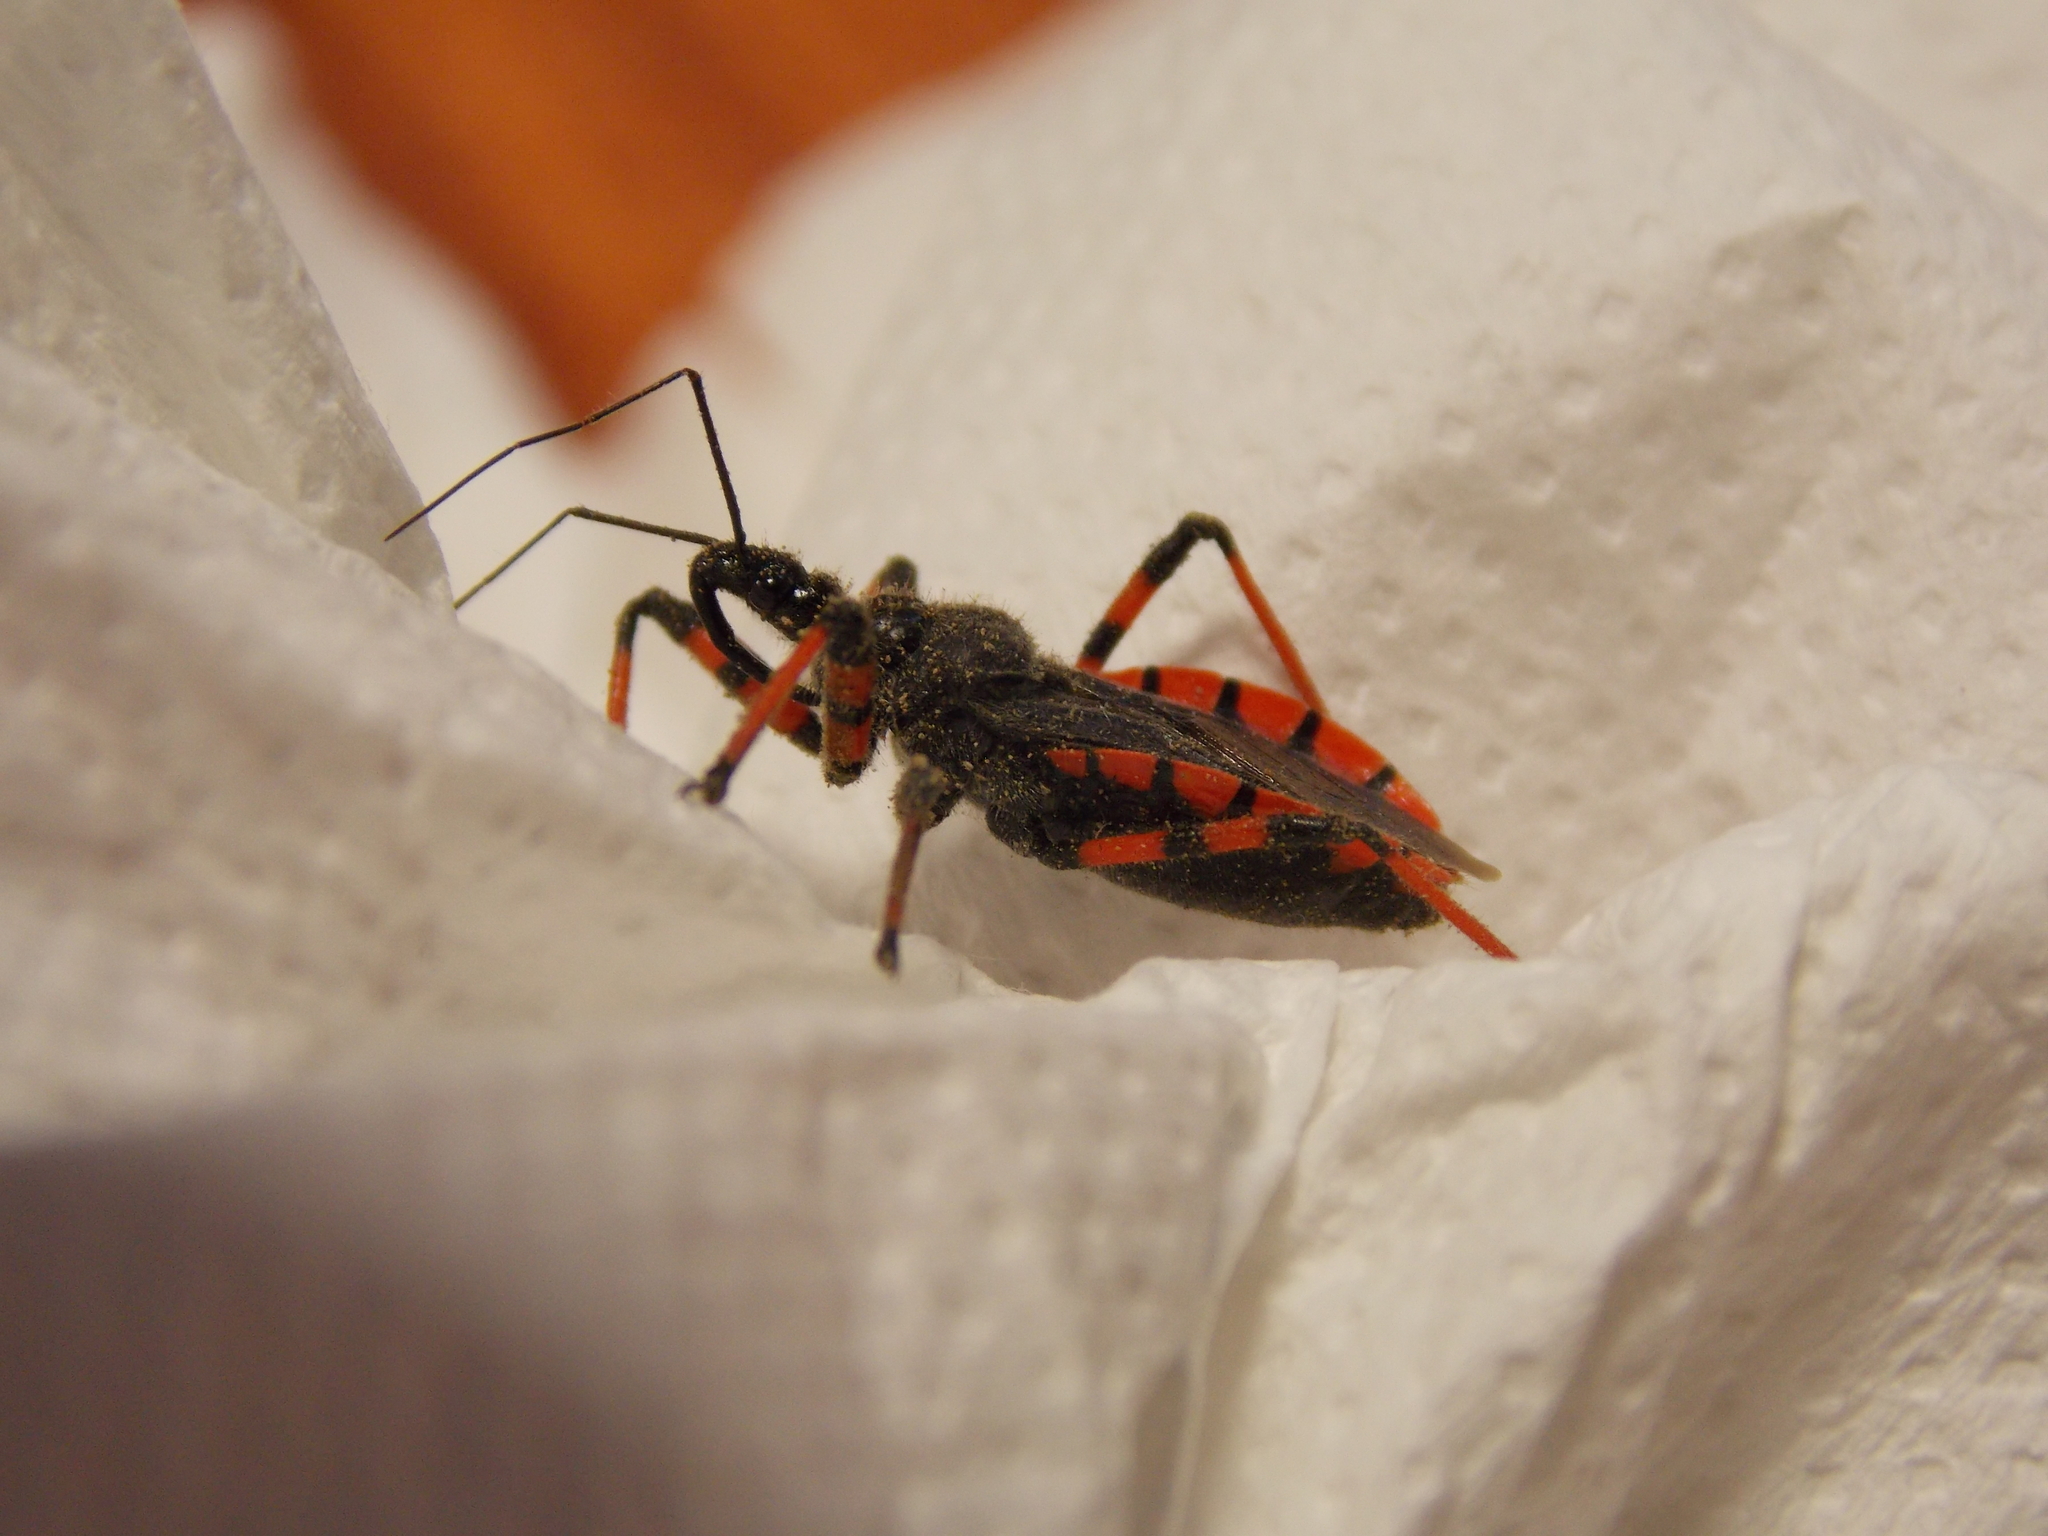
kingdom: Animalia
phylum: Arthropoda
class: Insecta
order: Hemiptera
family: Reduviidae
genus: Rhynocoris
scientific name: Rhynocoris annulatus
